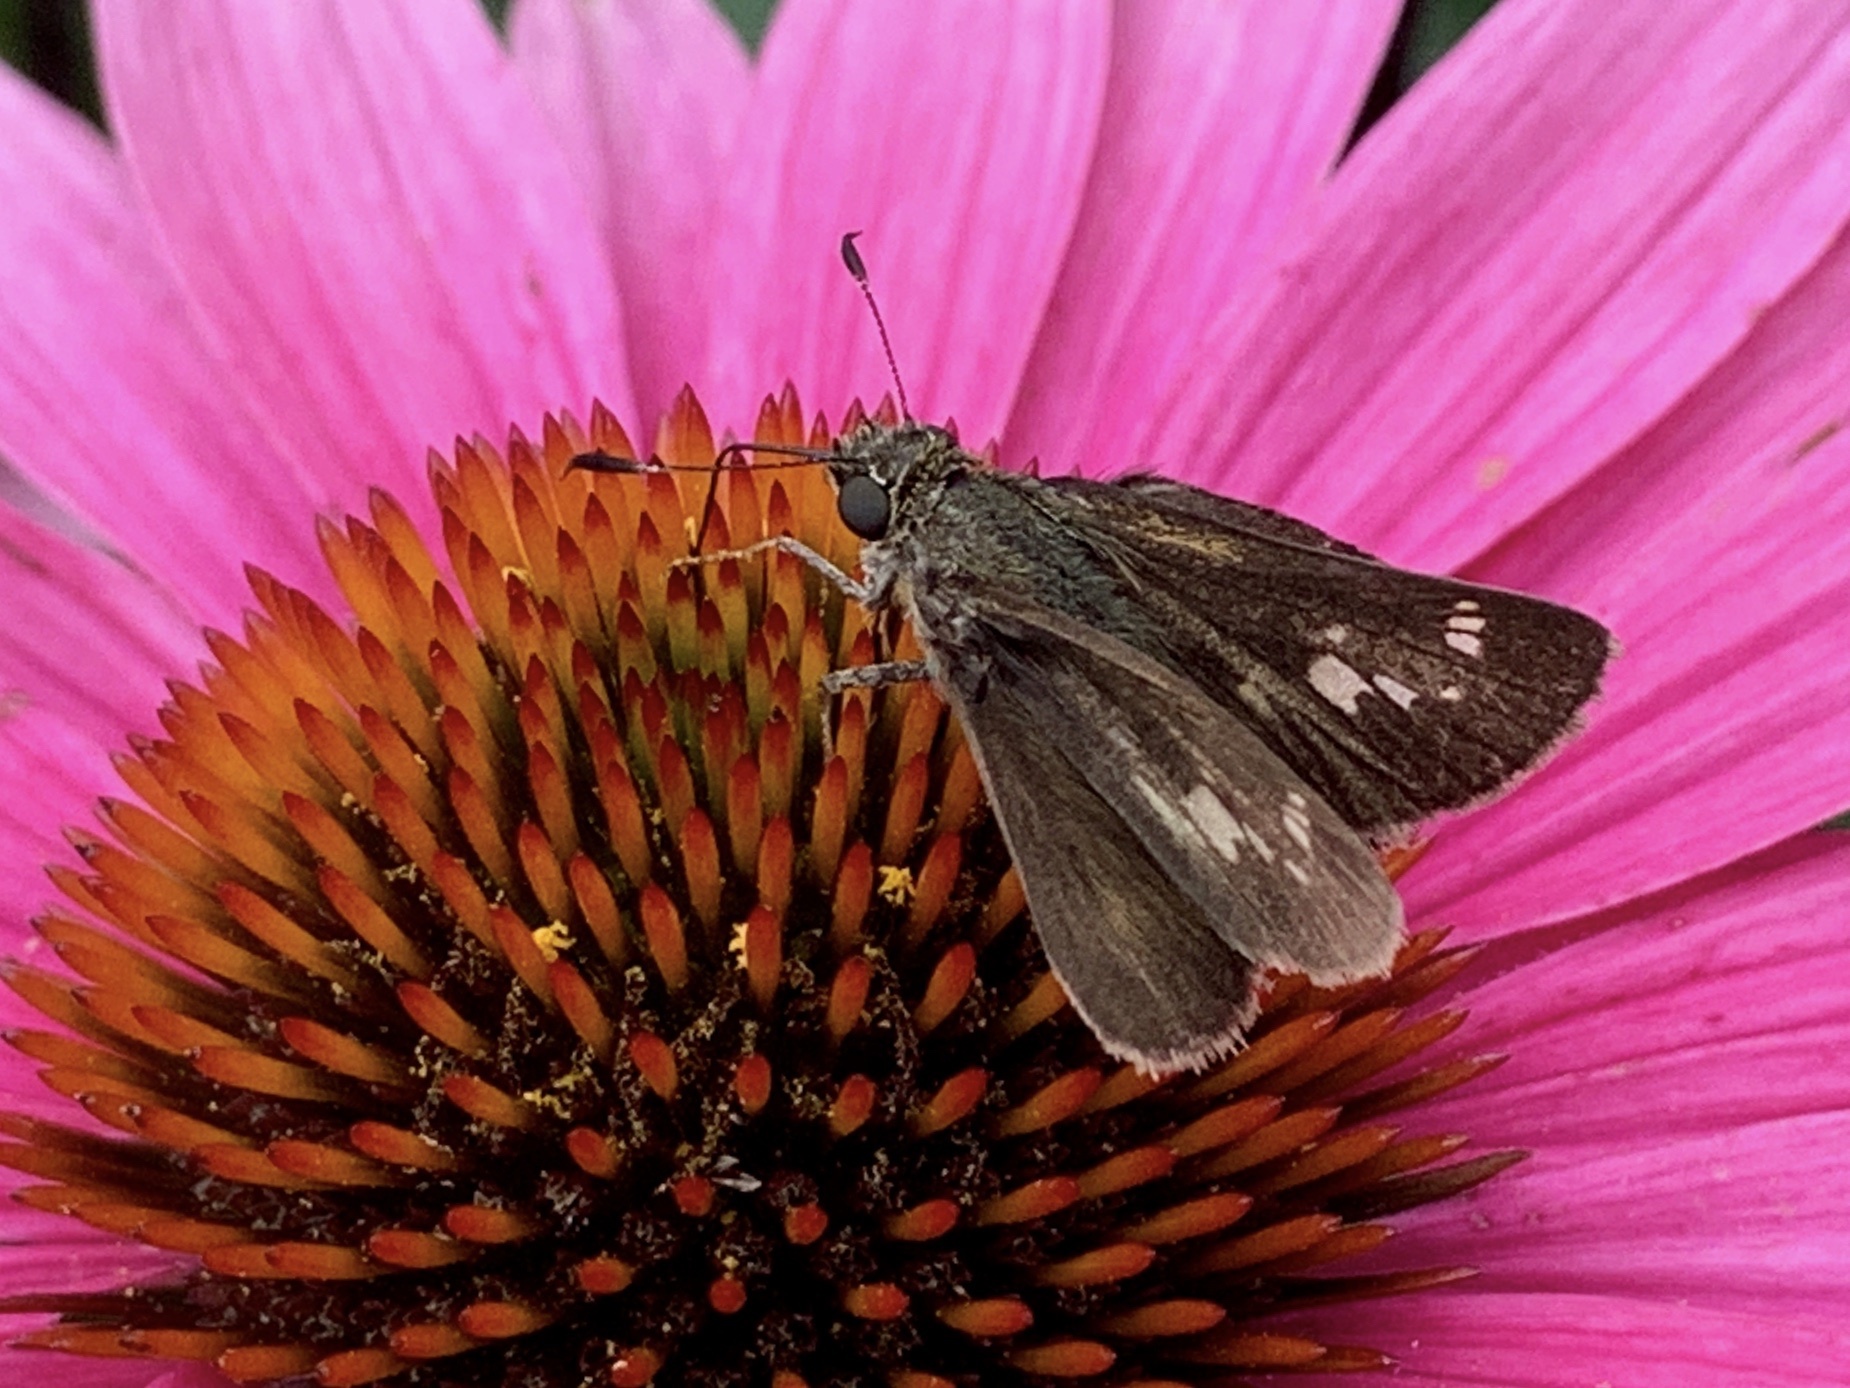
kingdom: Animalia
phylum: Arthropoda
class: Insecta
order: Lepidoptera
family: Hesperiidae
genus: Vernia
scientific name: Vernia verna
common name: Little glassywing
